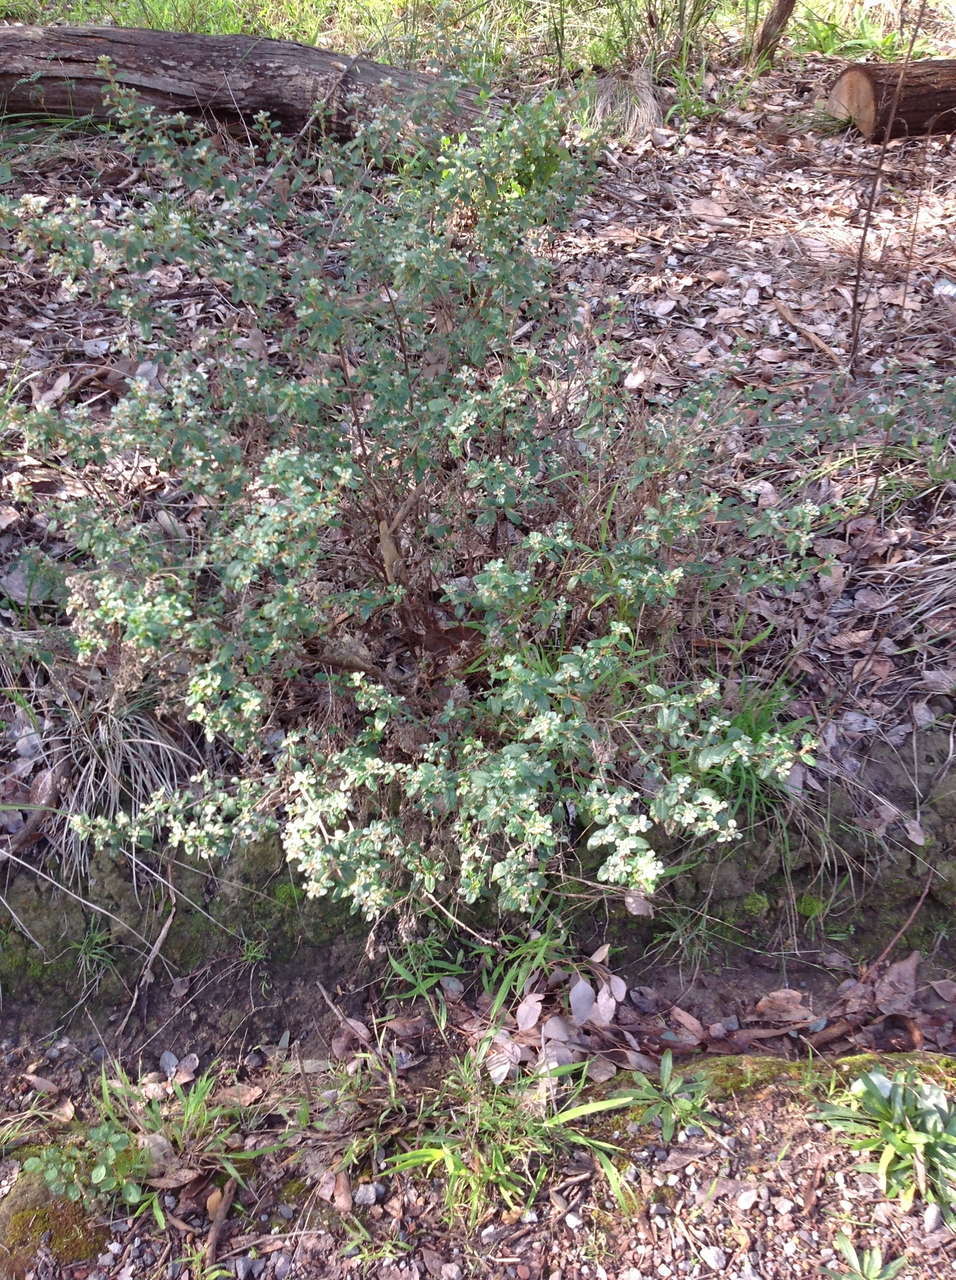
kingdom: Plantae
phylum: Tracheophyta
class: Magnoliopsida
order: Rosales
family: Rhamnaceae
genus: Spyridium
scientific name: Spyridium parvifolium
